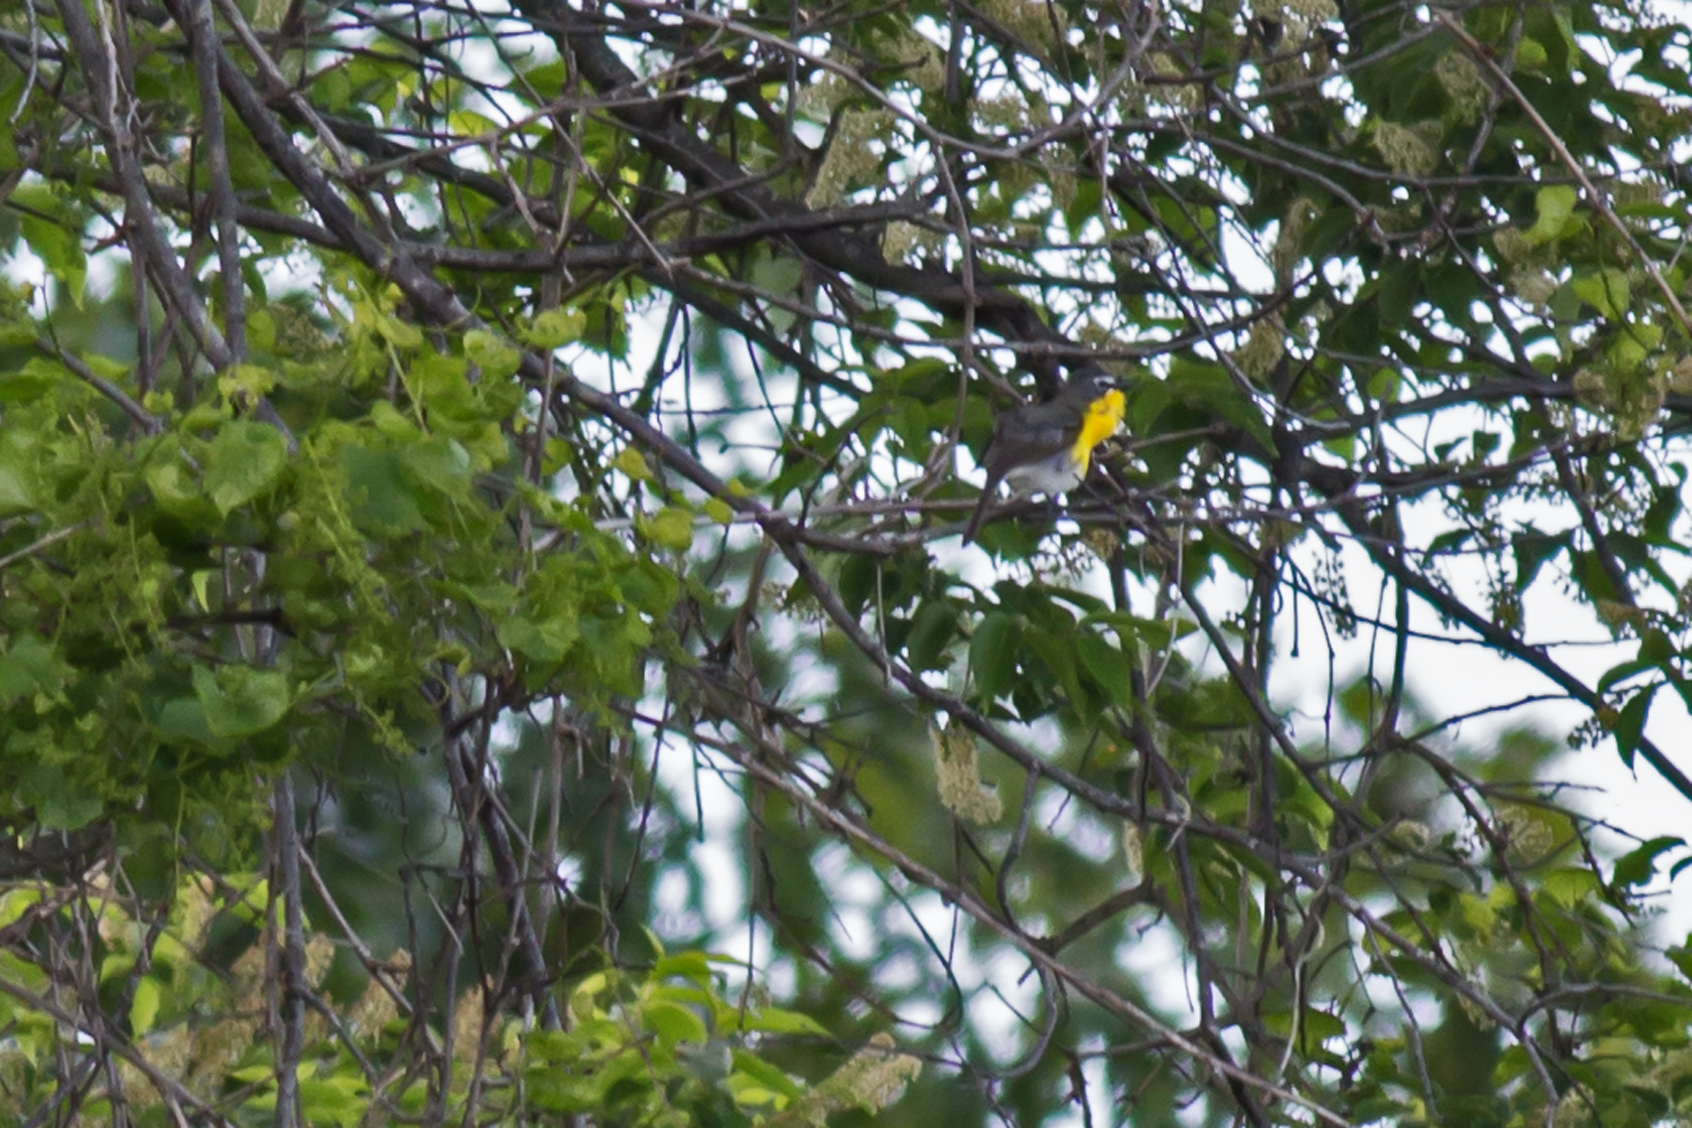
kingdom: Animalia
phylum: Chordata
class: Aves
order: Passeriformes
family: Parulidae
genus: Icteria
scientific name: Icteria virens
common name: Yellow-breasted chat
